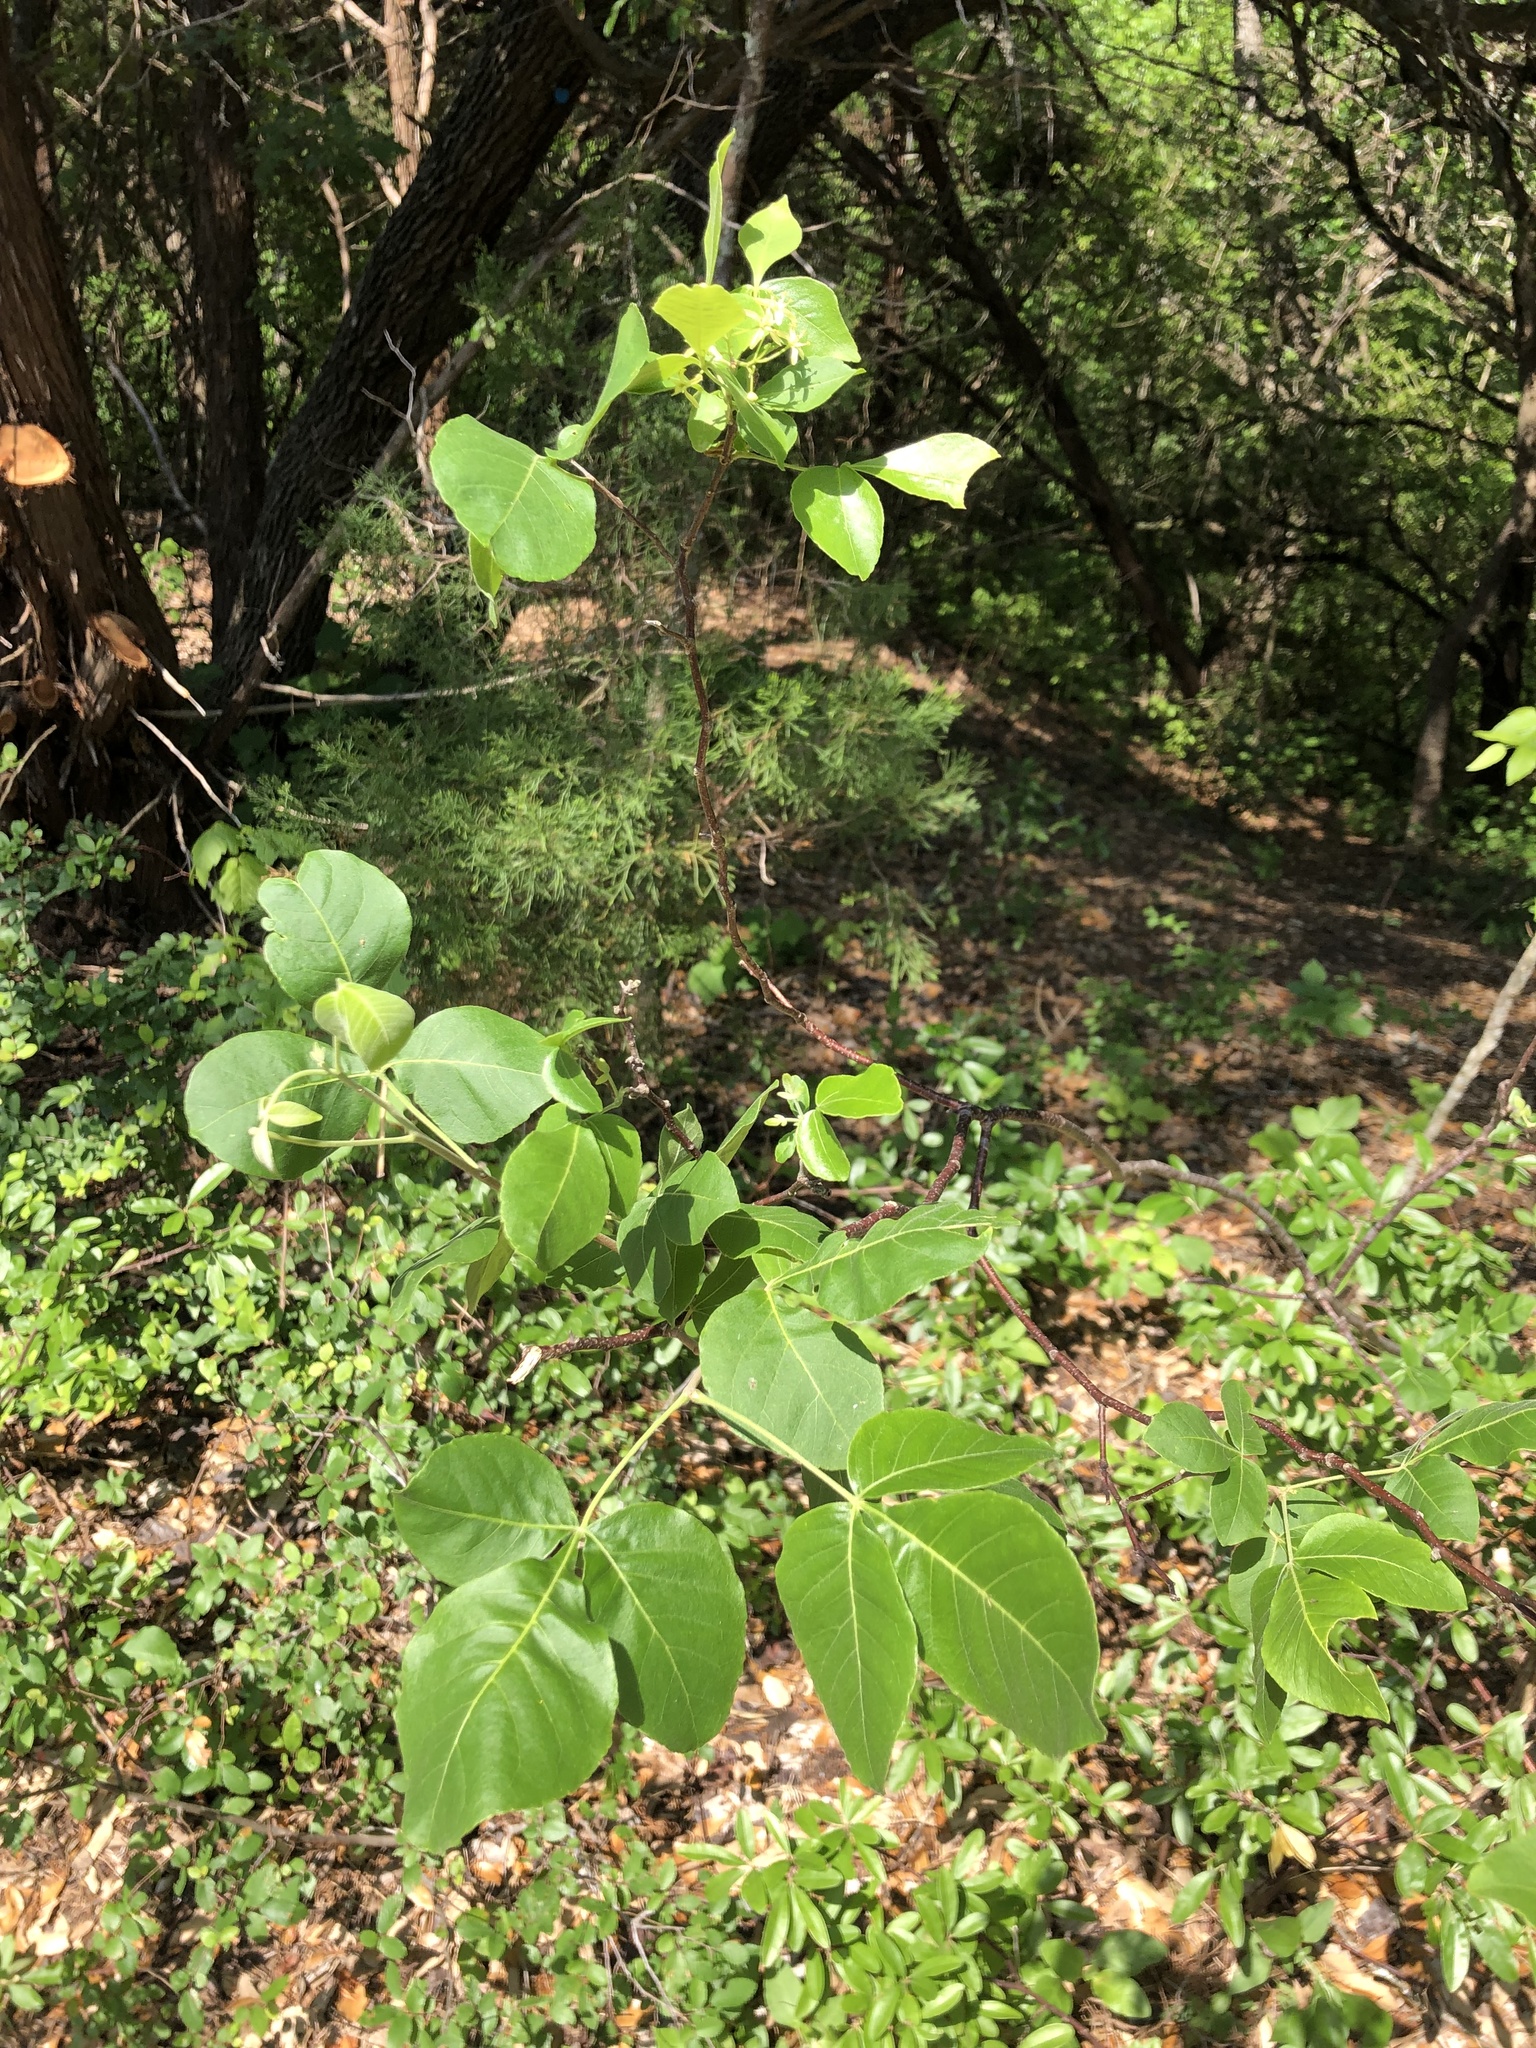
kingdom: Plantae
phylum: Tracheophyta
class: Magnoliopsida
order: Sapindales
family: Rutaceae
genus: Ptelea
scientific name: Ptelea trifoliata
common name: Common hop-tree
